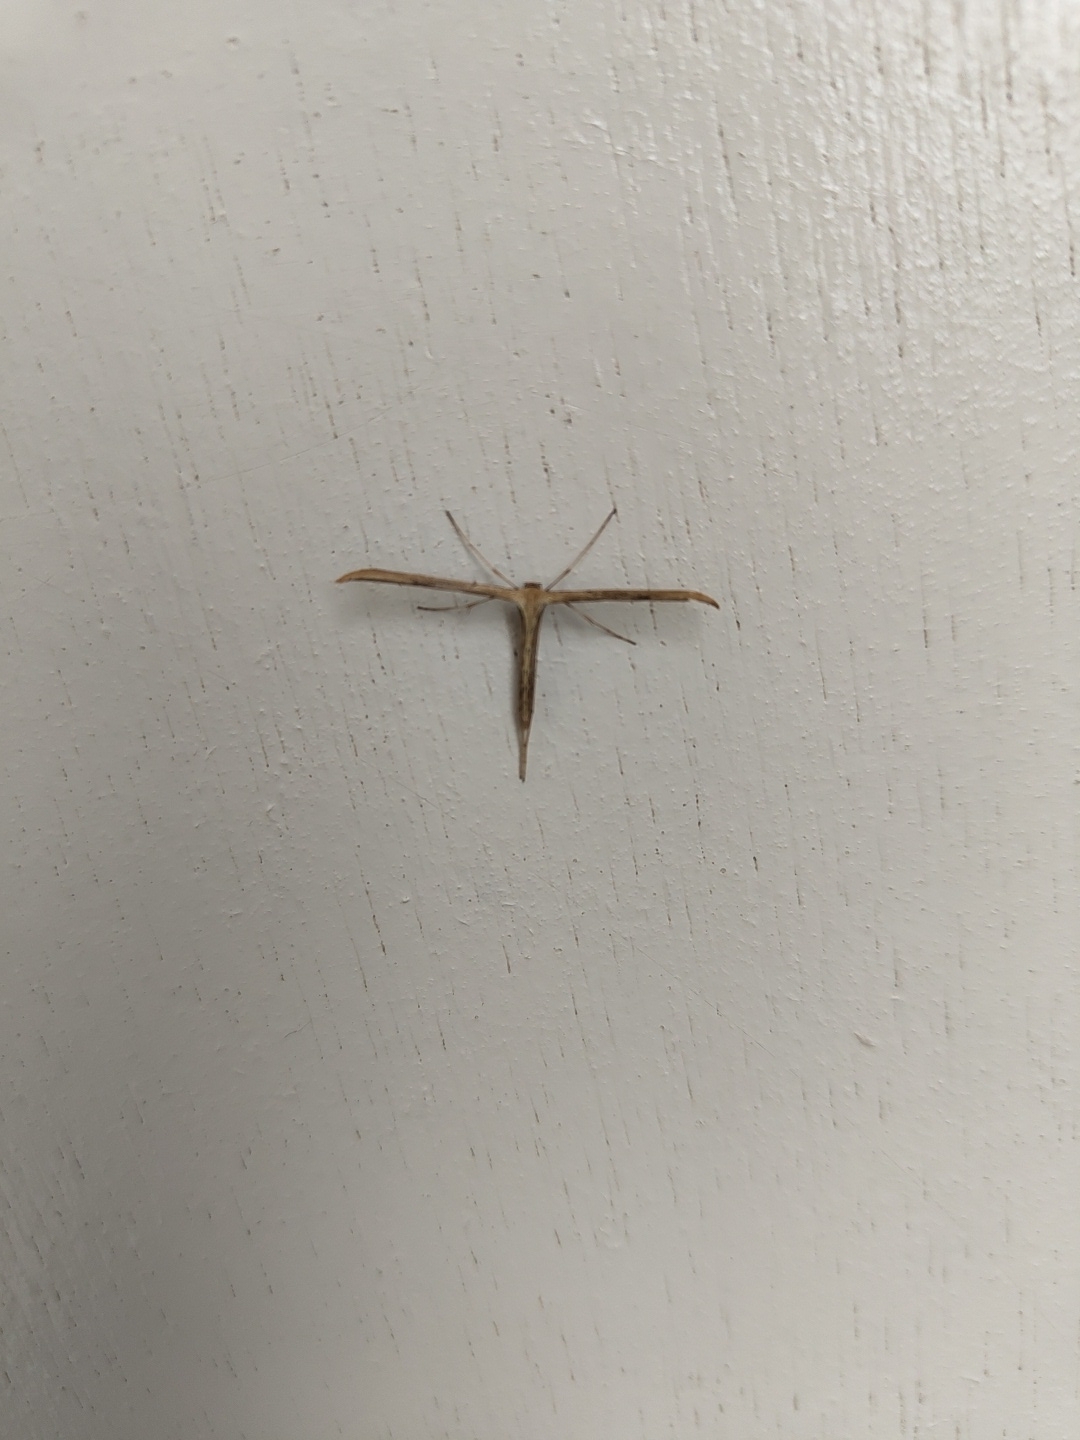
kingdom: Animalia
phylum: Arthropoda
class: Insecta
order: Lepidoptera
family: Pterophoridae
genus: Emmelina
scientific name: Emmelina monodactyla
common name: Common plume
